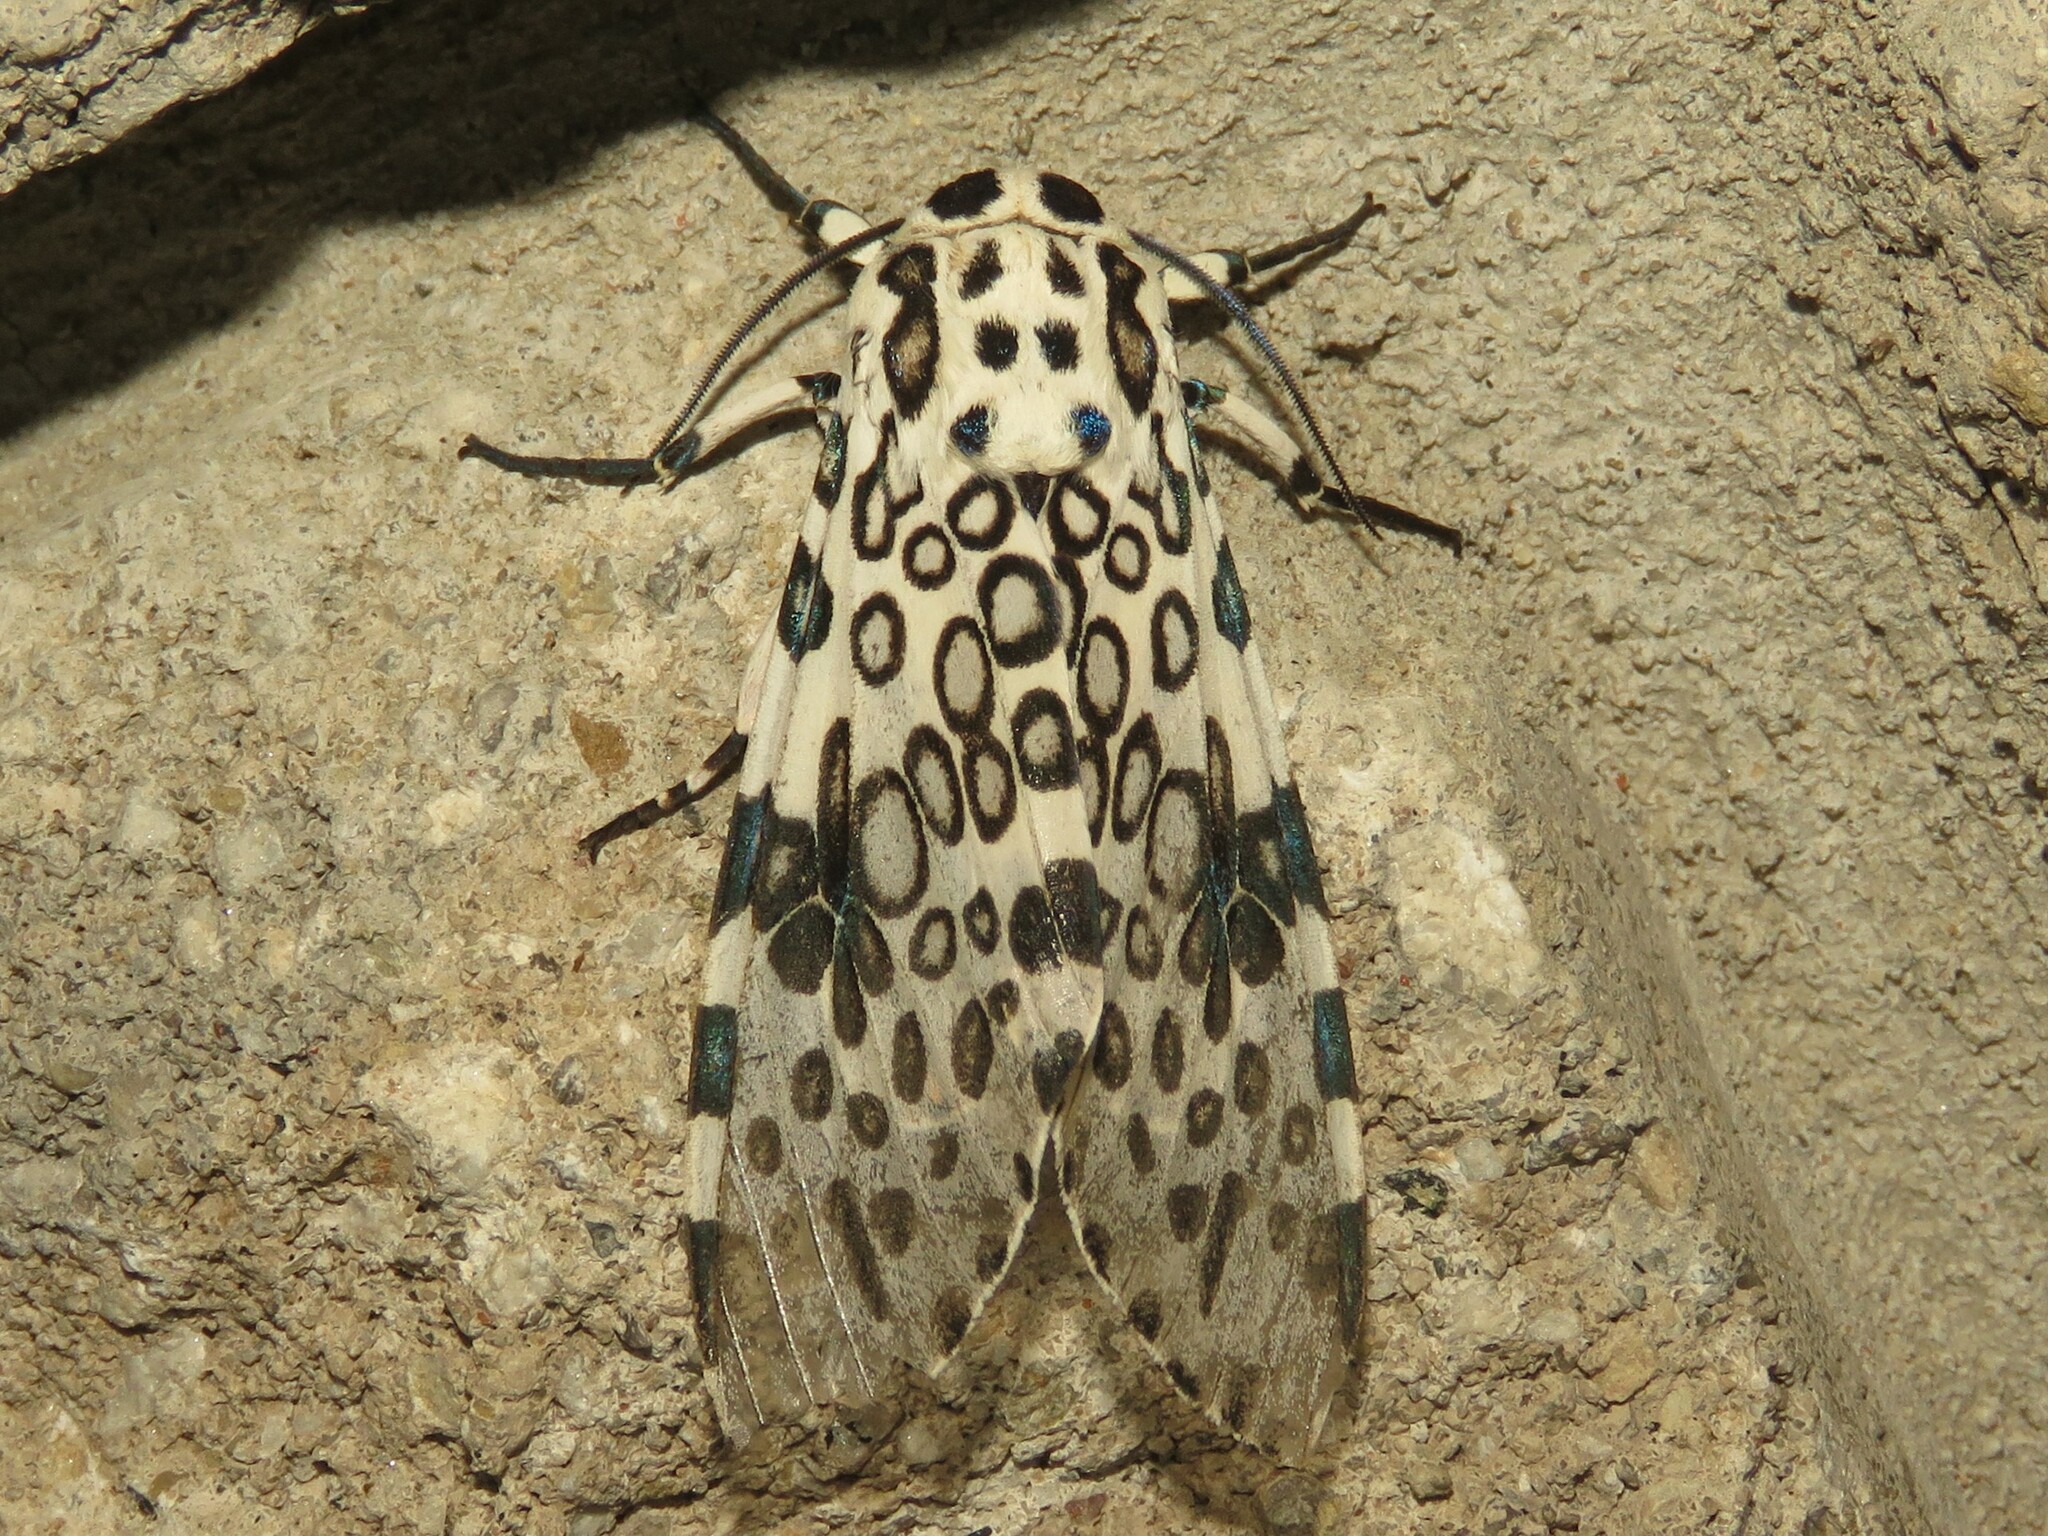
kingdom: Animalia
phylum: Arthropoda
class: Insecta
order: Lepidoptera
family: Erebidae
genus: Hypercompe
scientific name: Hypercompe scribonia
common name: Giant leopard moth
